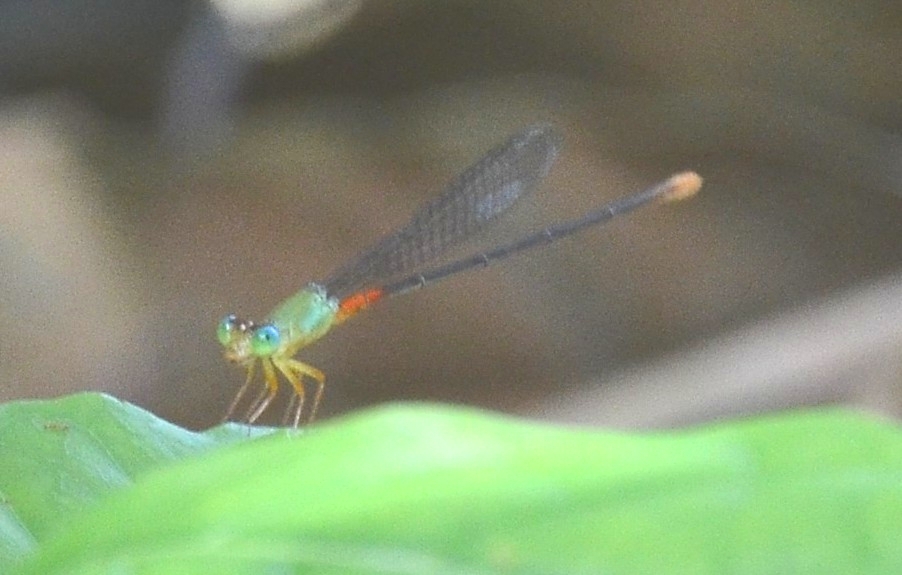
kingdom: Animalia
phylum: Arthropoda
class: Insecta
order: Odonata
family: Coenagrionidae
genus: Ceriagrion
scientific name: Ceriagrion cerinorubellum
